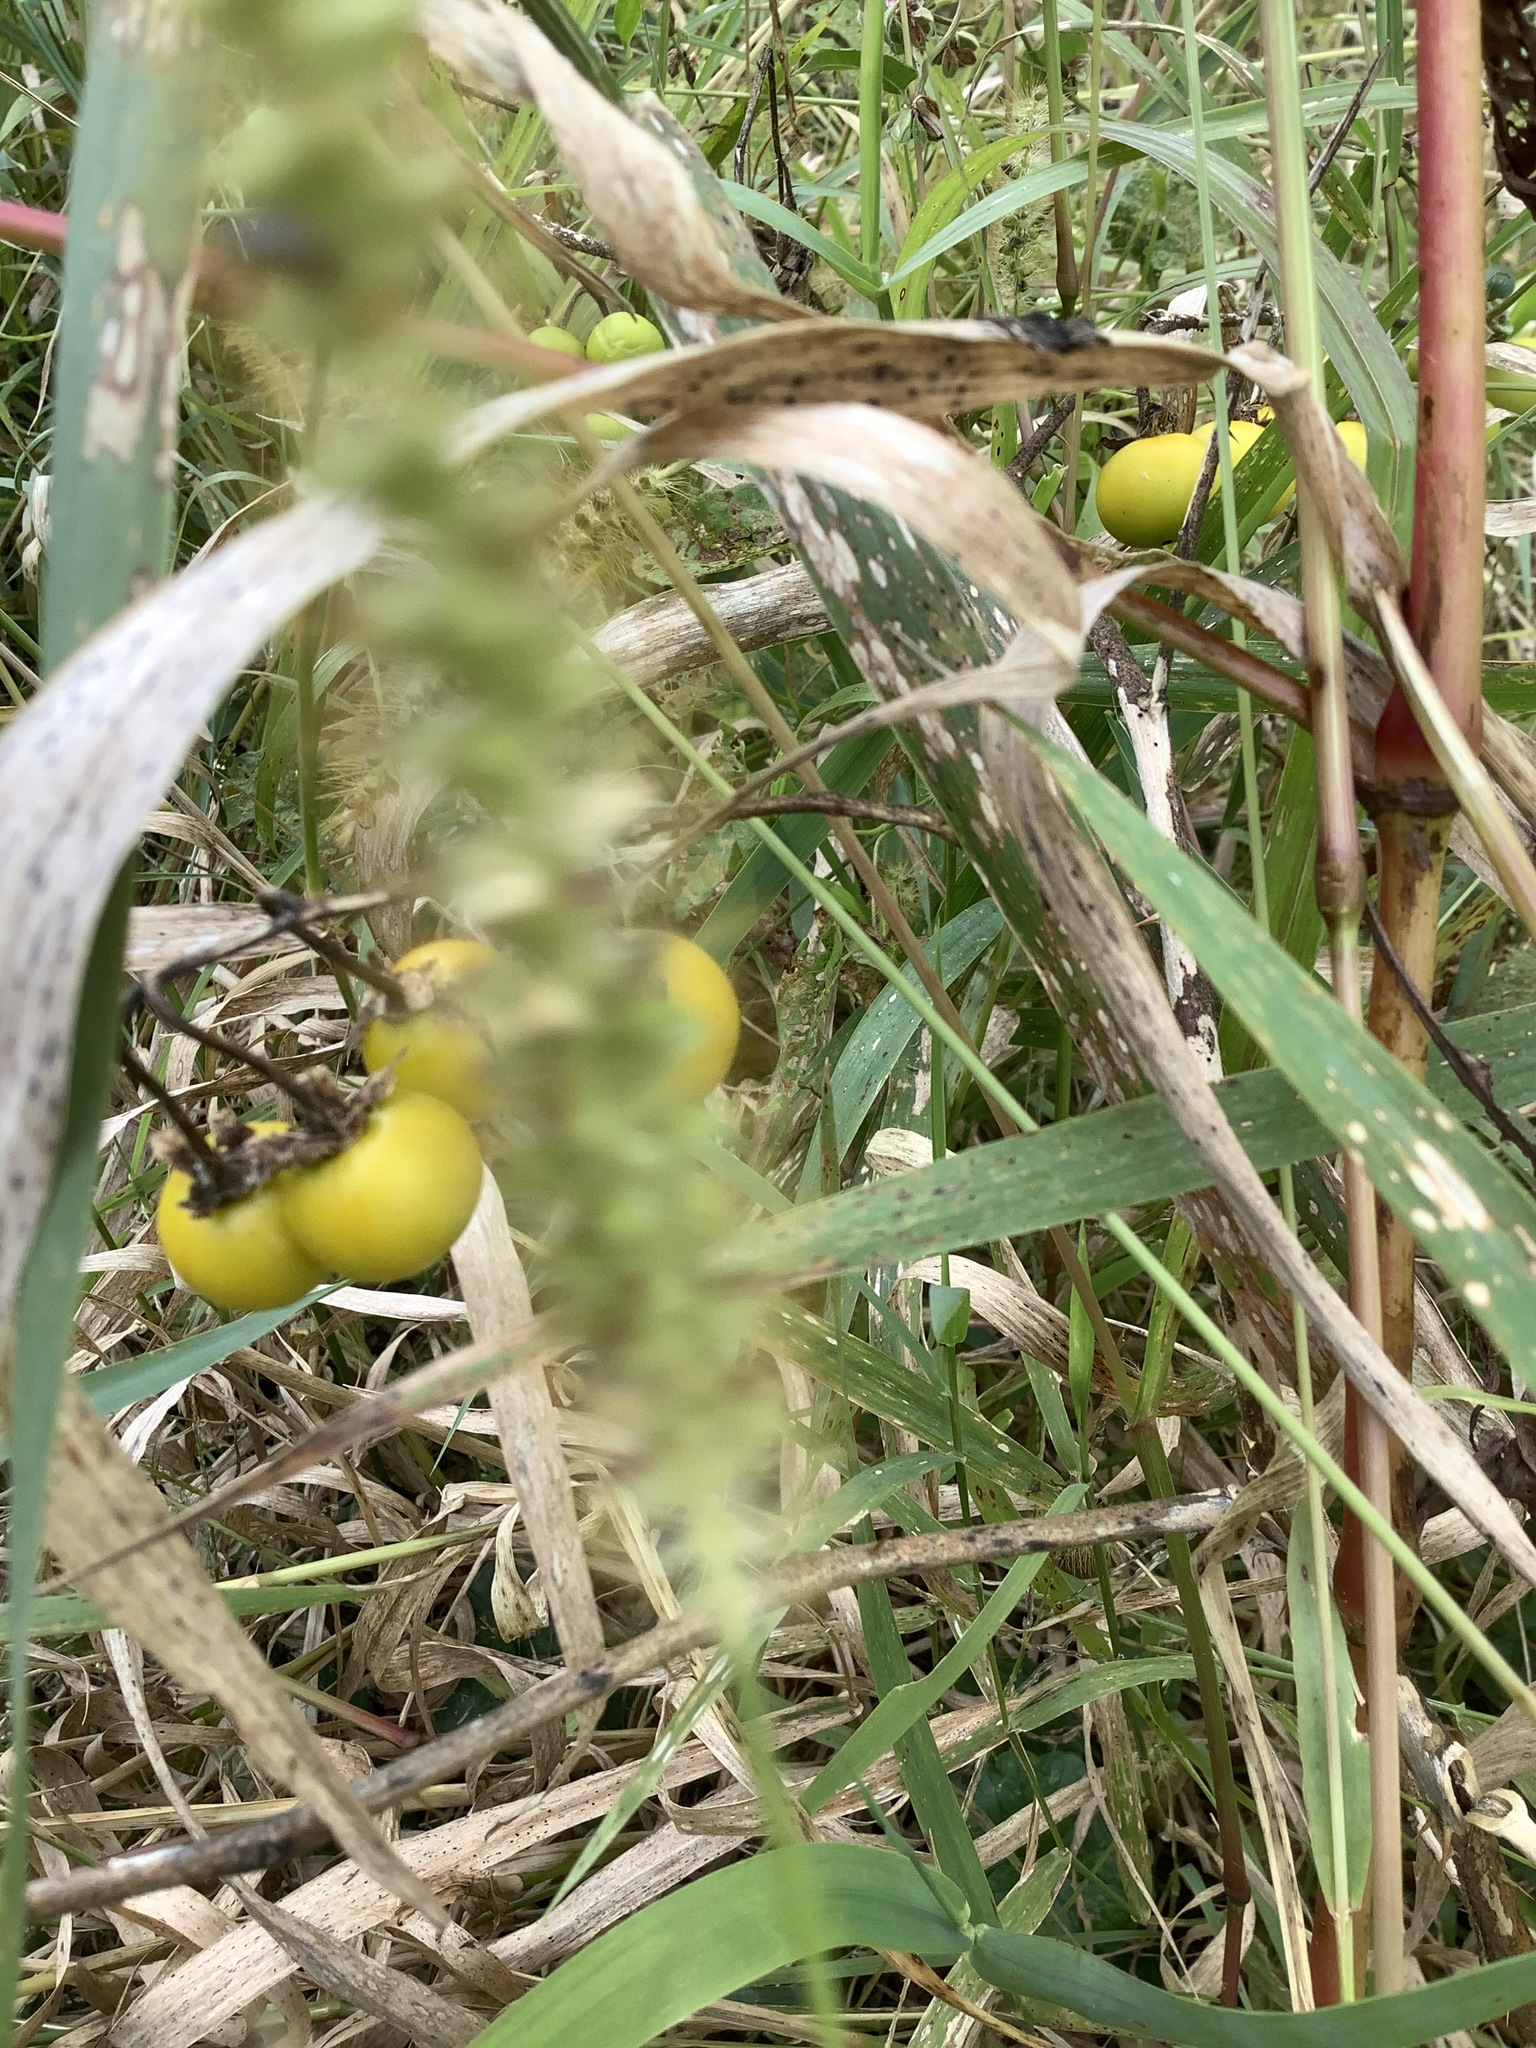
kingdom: Plantae
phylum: Tracheophyta
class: Magnoliopsida
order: Solanales
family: Solanaceae
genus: Solanum
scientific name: Solanum carolinense
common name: Horse-nettle
